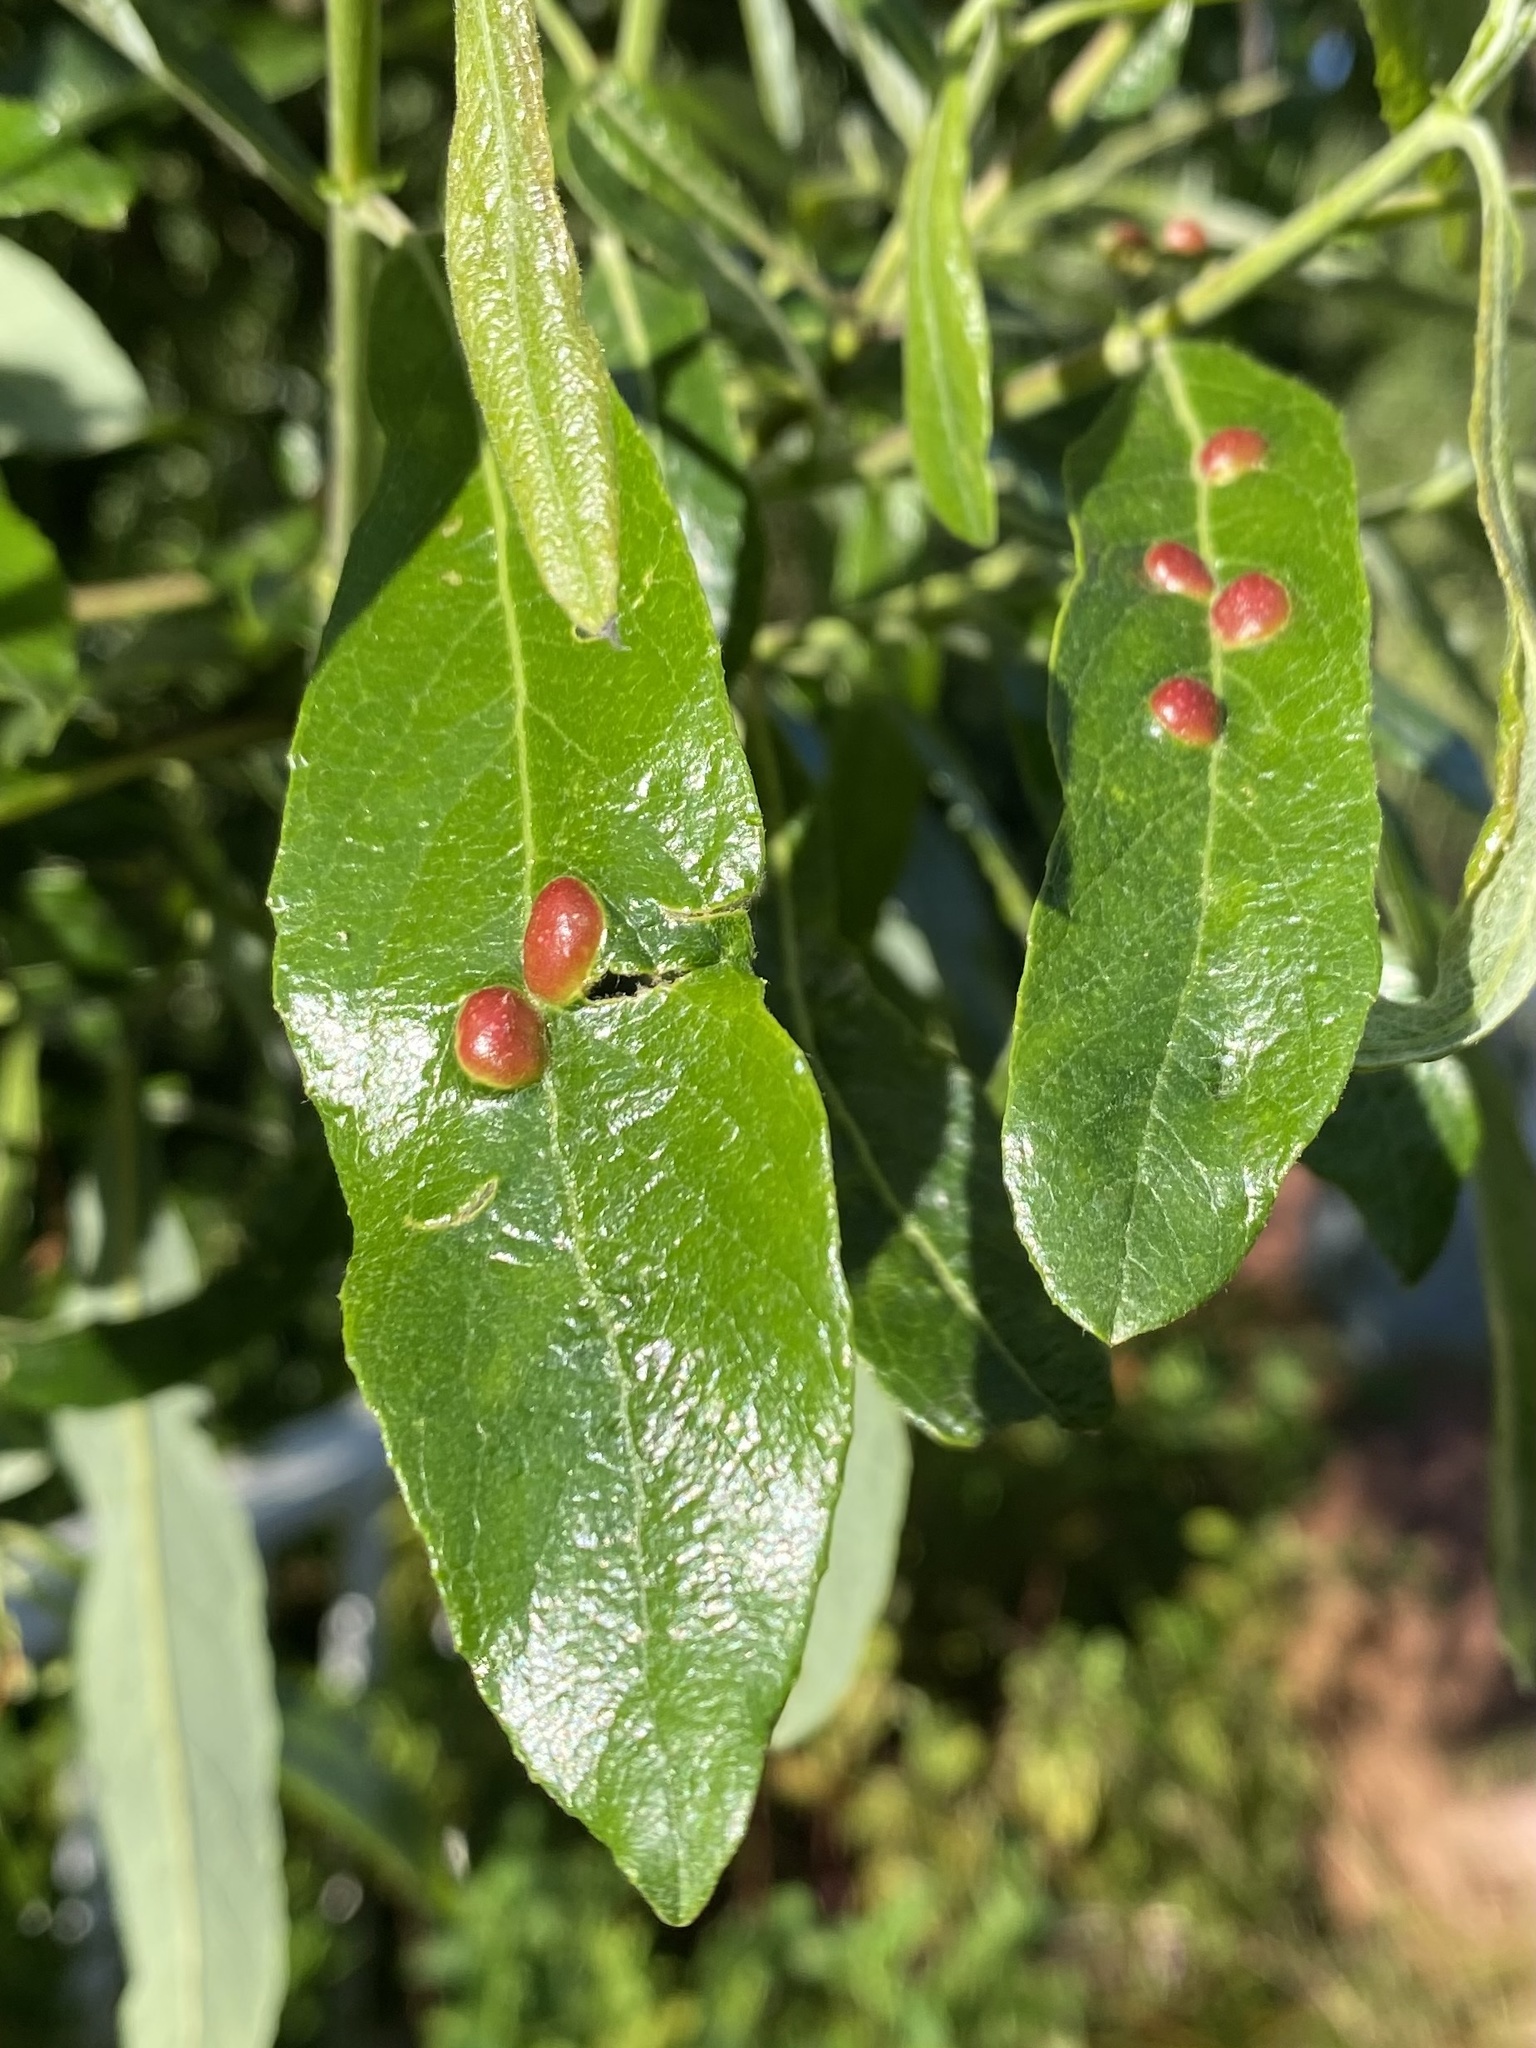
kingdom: Animalia
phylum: Arthropoda
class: Insecta
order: Hymenoptera
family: Tenthredinidae
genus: Euura
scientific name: Euura
